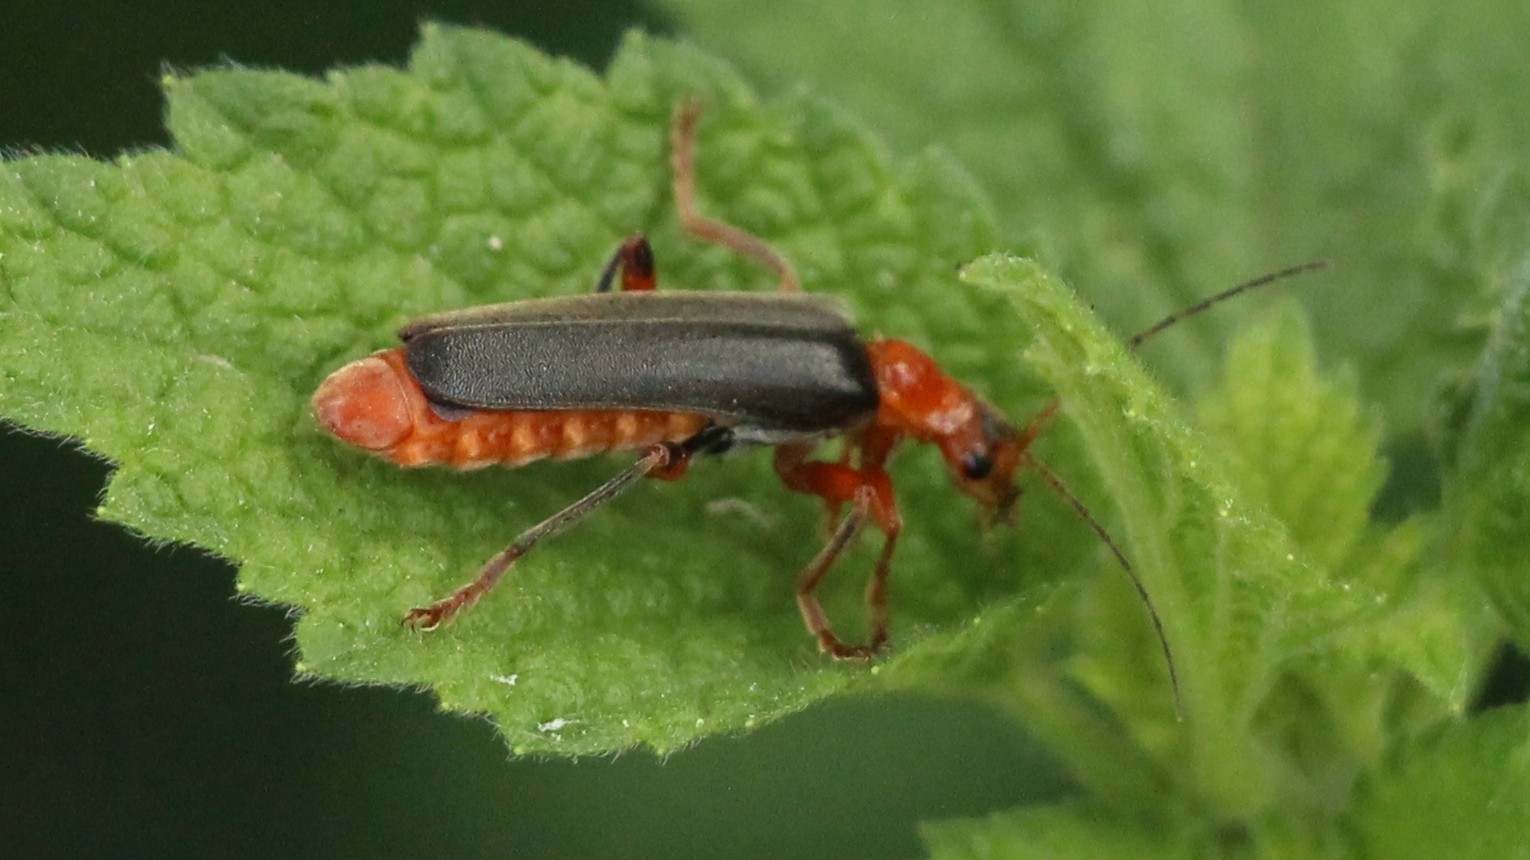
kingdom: Animalia
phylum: Arthropoda
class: Insecta
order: Coleoptera
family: Cantharidae
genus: Cantharis
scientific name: Cantharis livida
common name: Livid soldier beetle
